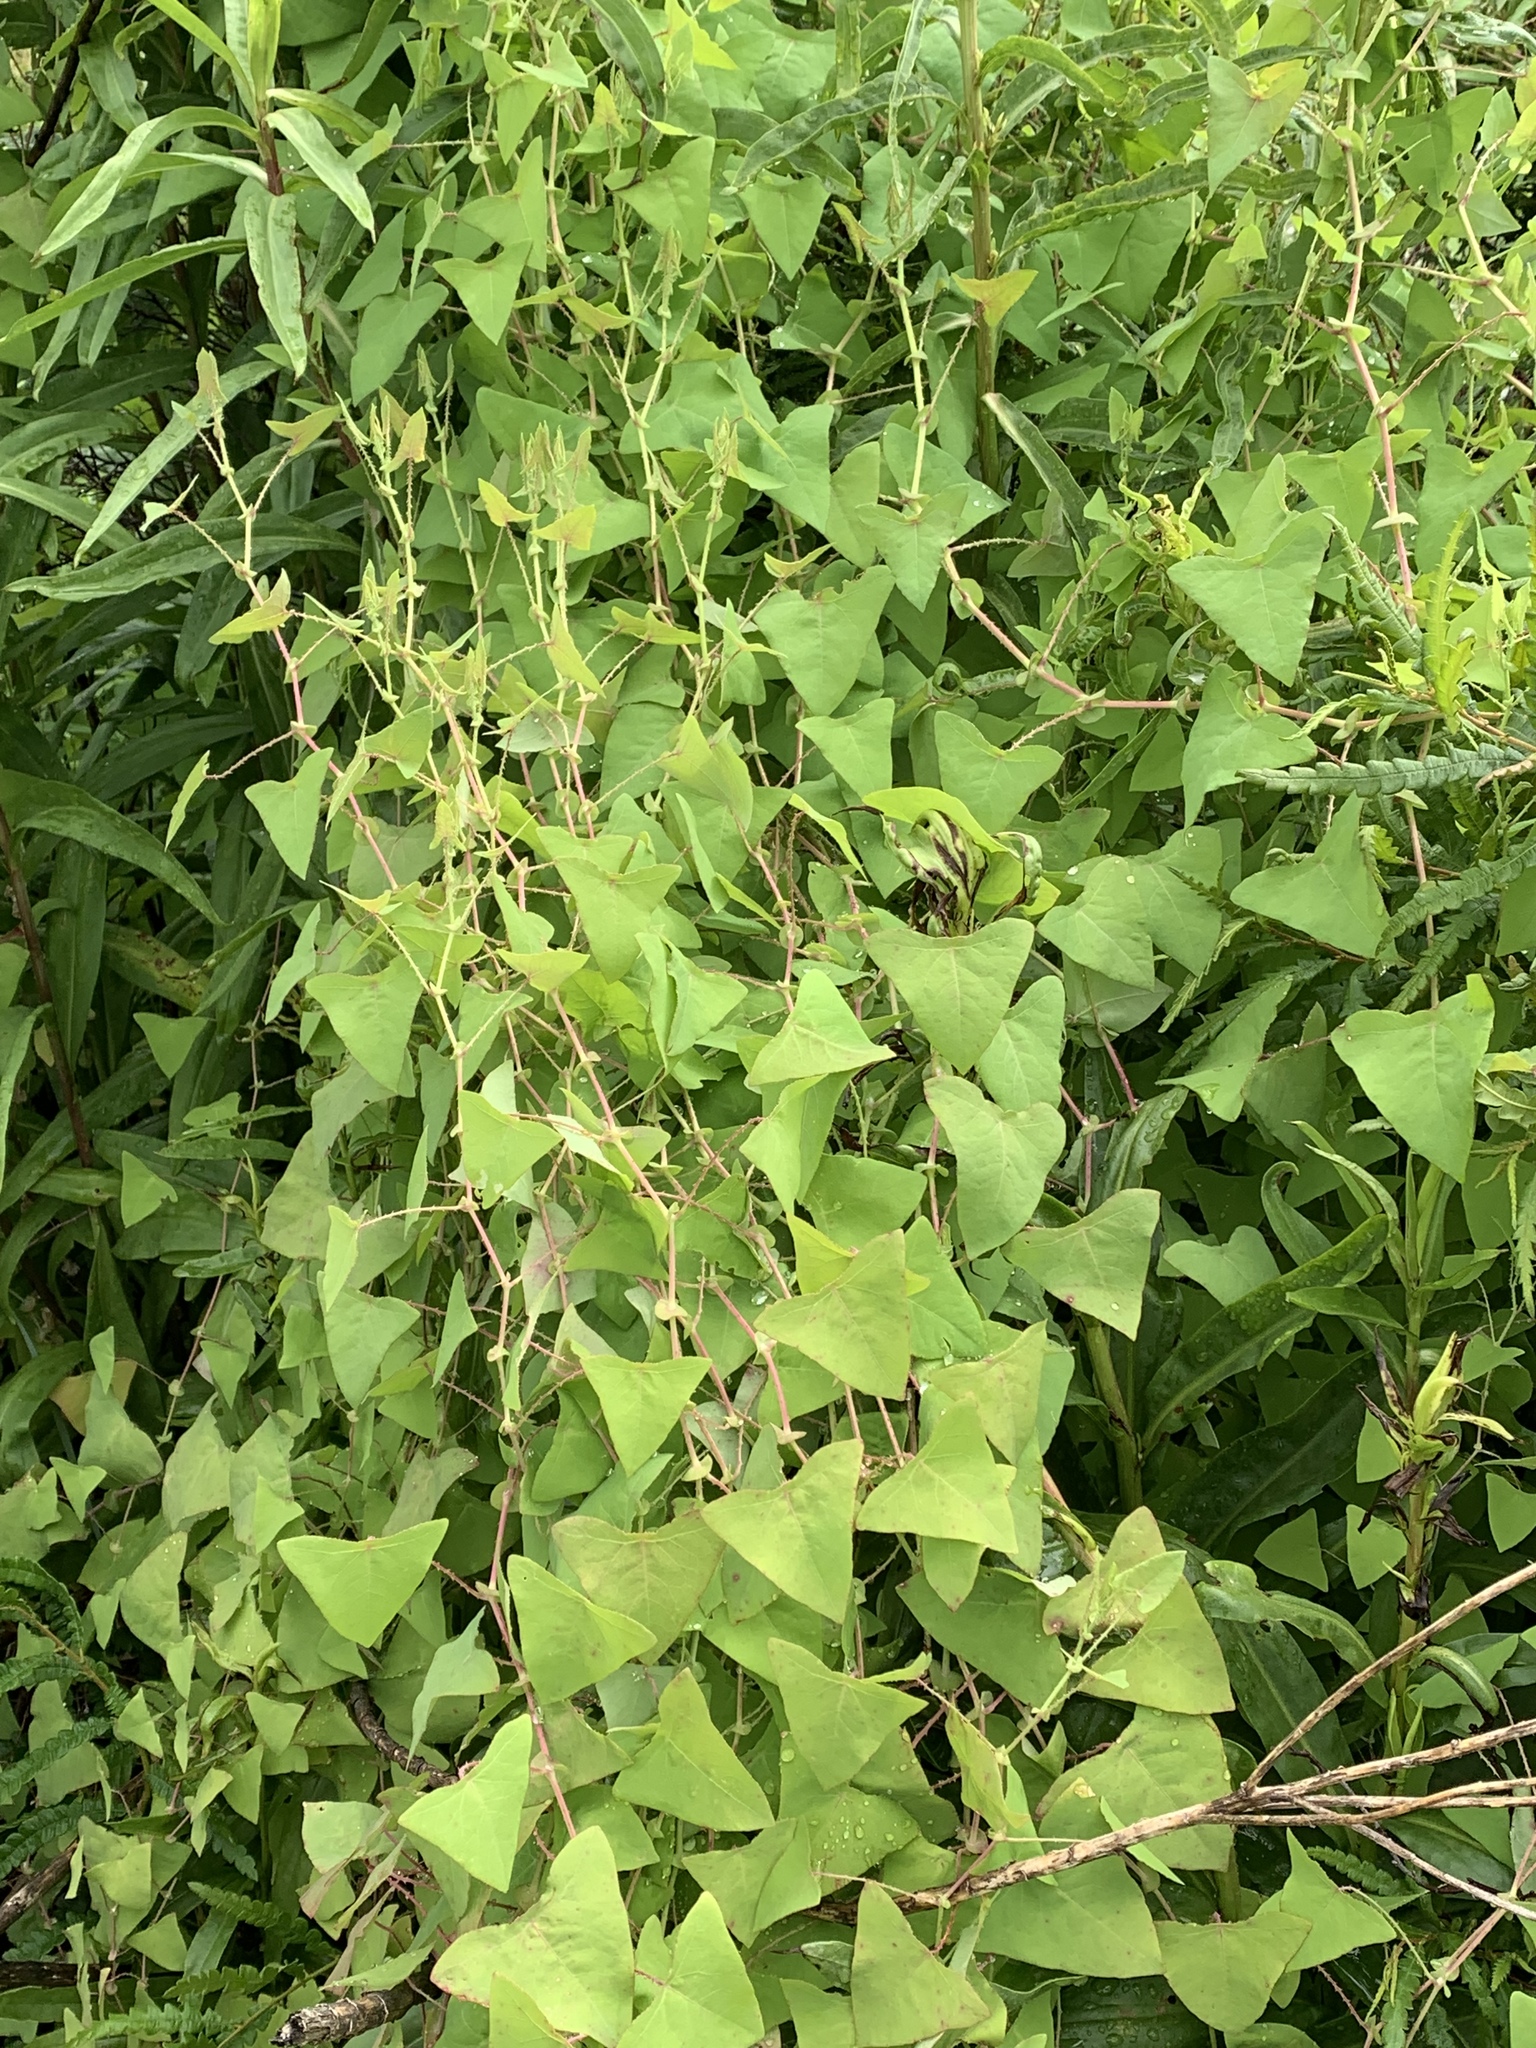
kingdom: Plantae
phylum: Tracheophyta
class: Magnoliopsida
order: Caryophyllales
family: Polygonaceae
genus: Persicaria
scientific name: Persicaria perfoliata
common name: Asiatic tearthumb
